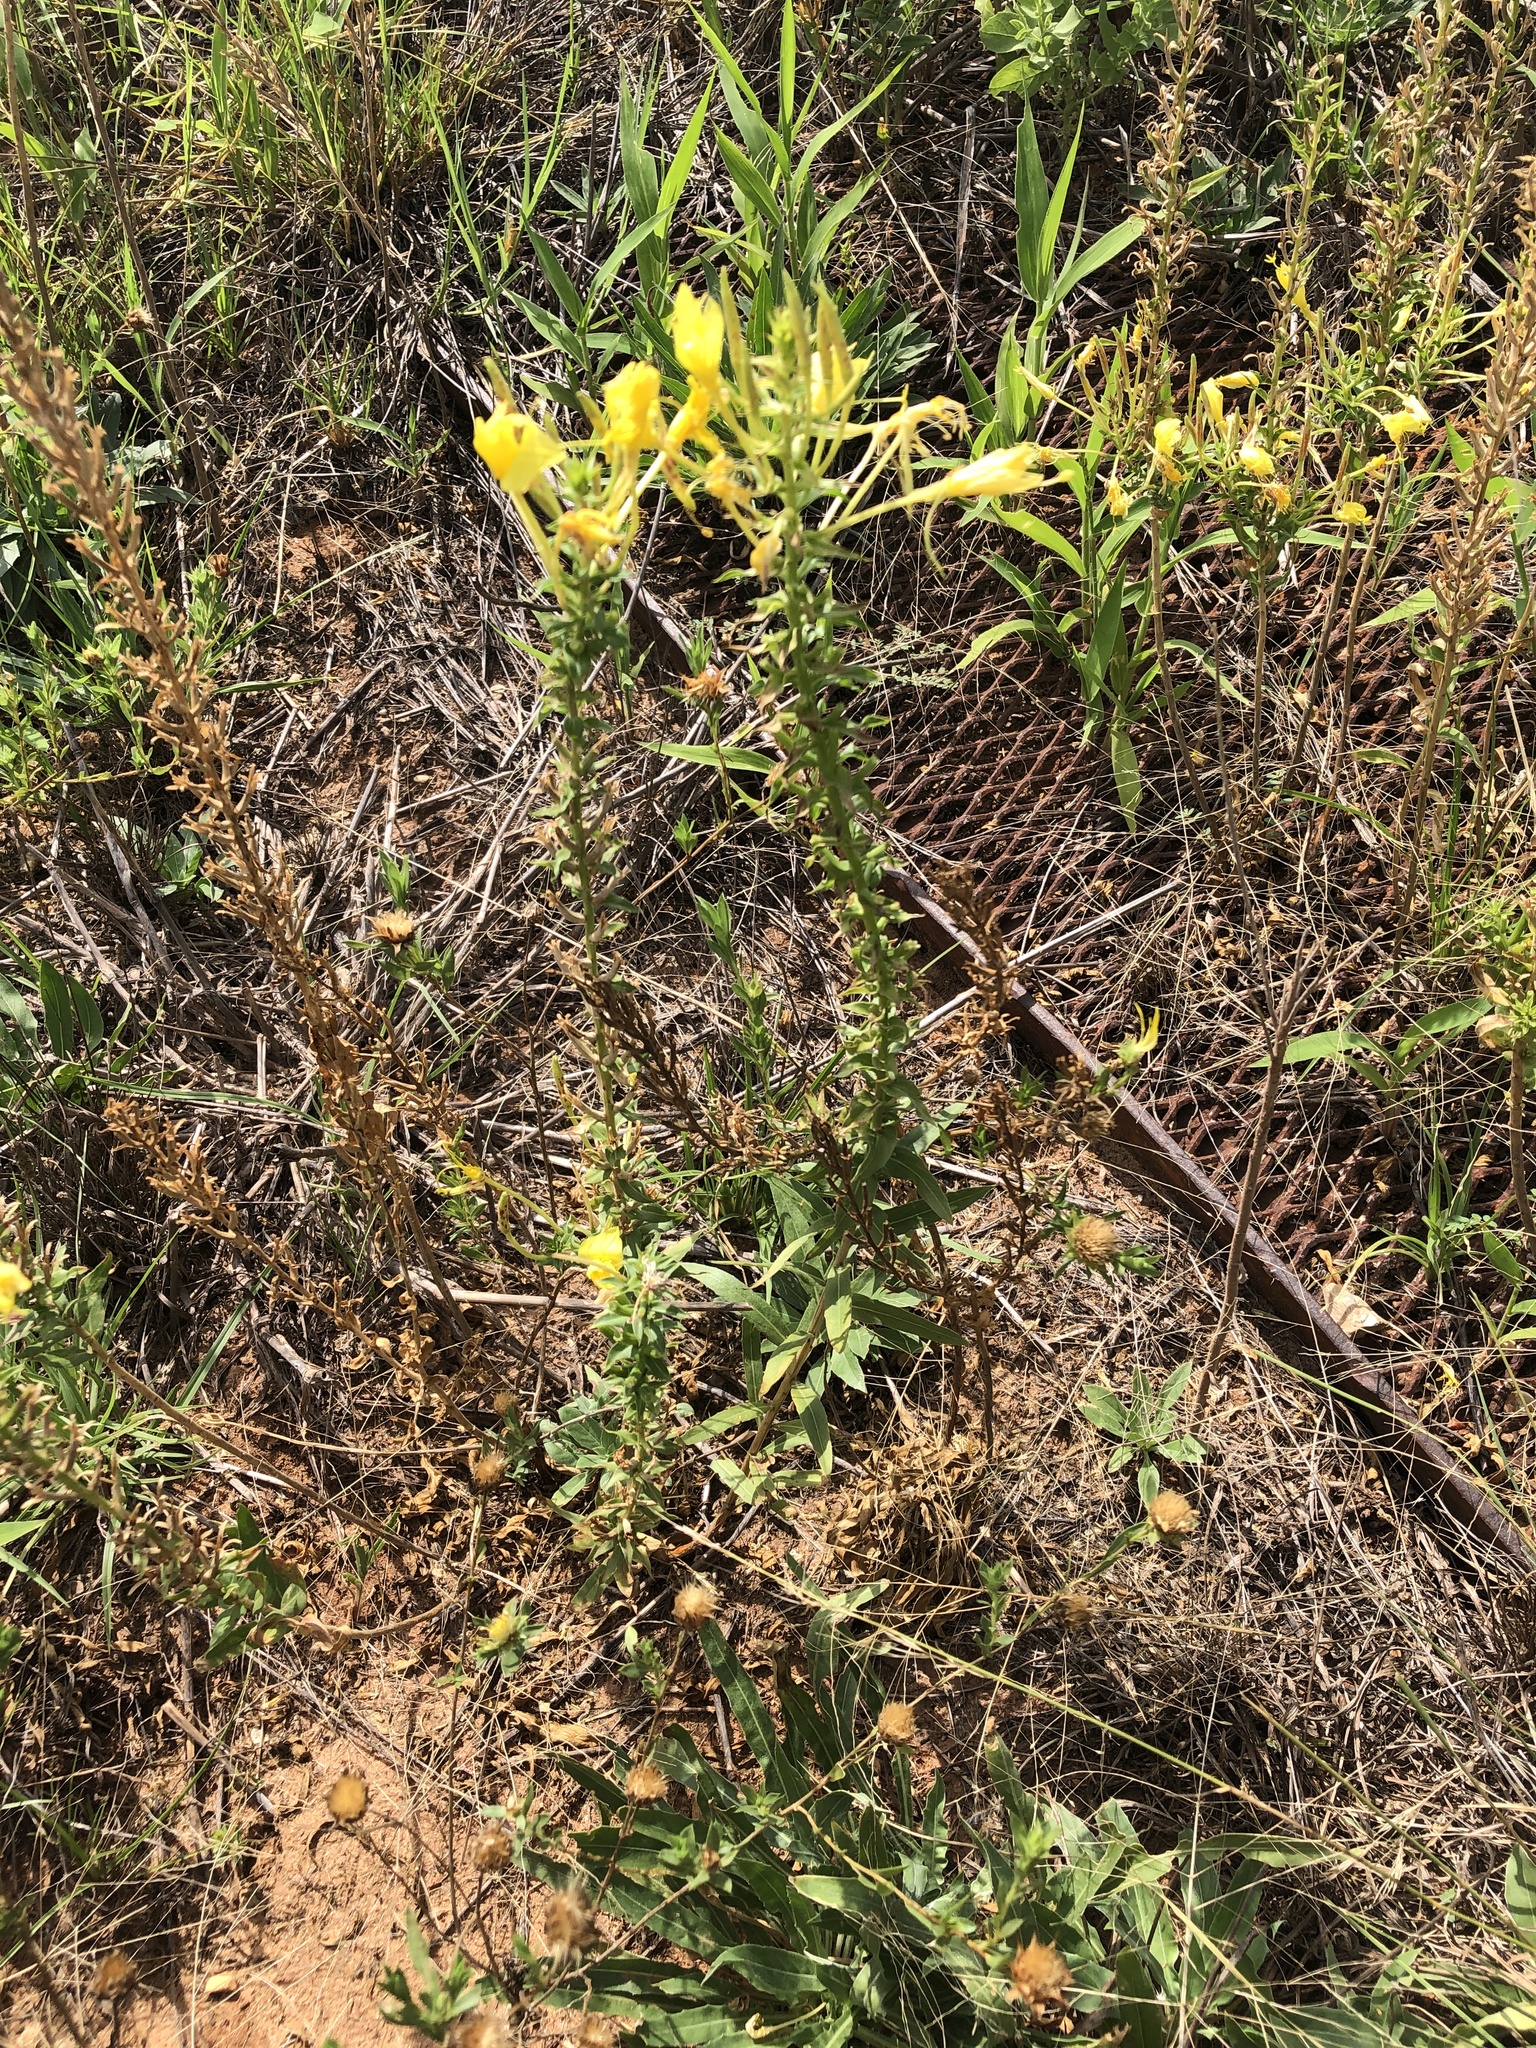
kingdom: Plantae
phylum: Tracheophyta
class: Magnoliopsida
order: Myrtales
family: Onagraceae
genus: Oenothera
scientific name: Oenothera rhombipetala
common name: Four-points evening-primrose
